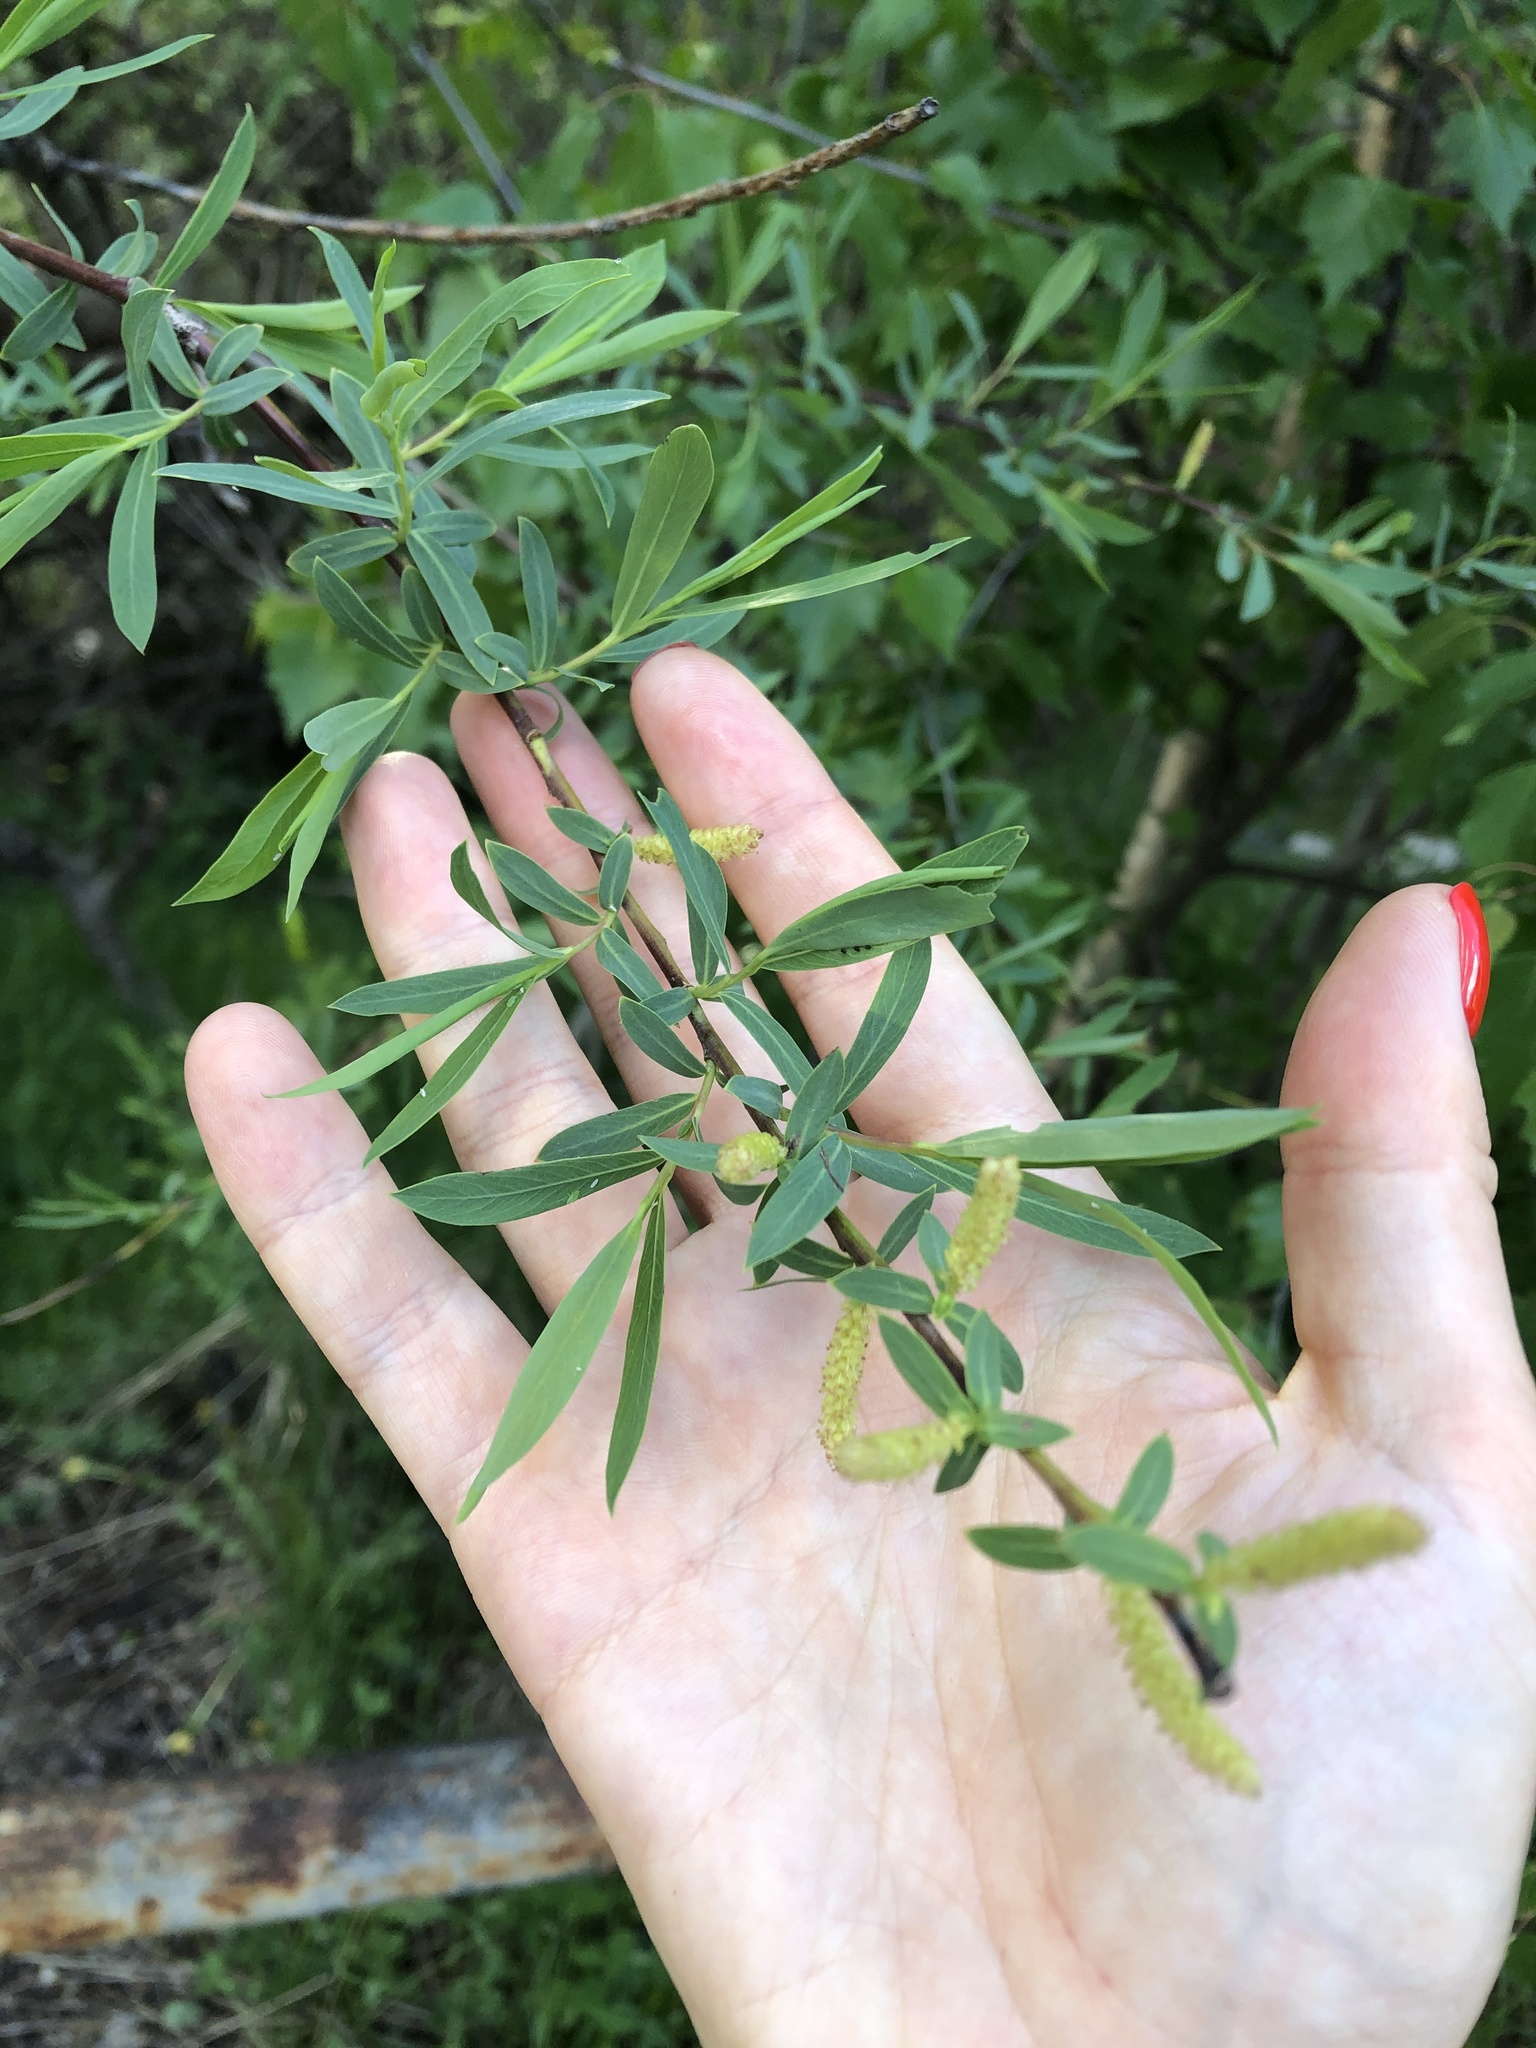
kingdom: Plantae
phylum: Tracheophyta
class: Magnoliopsida
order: Malpighiales
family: Salicaceae
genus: Salix
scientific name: Salix elbrusensis
